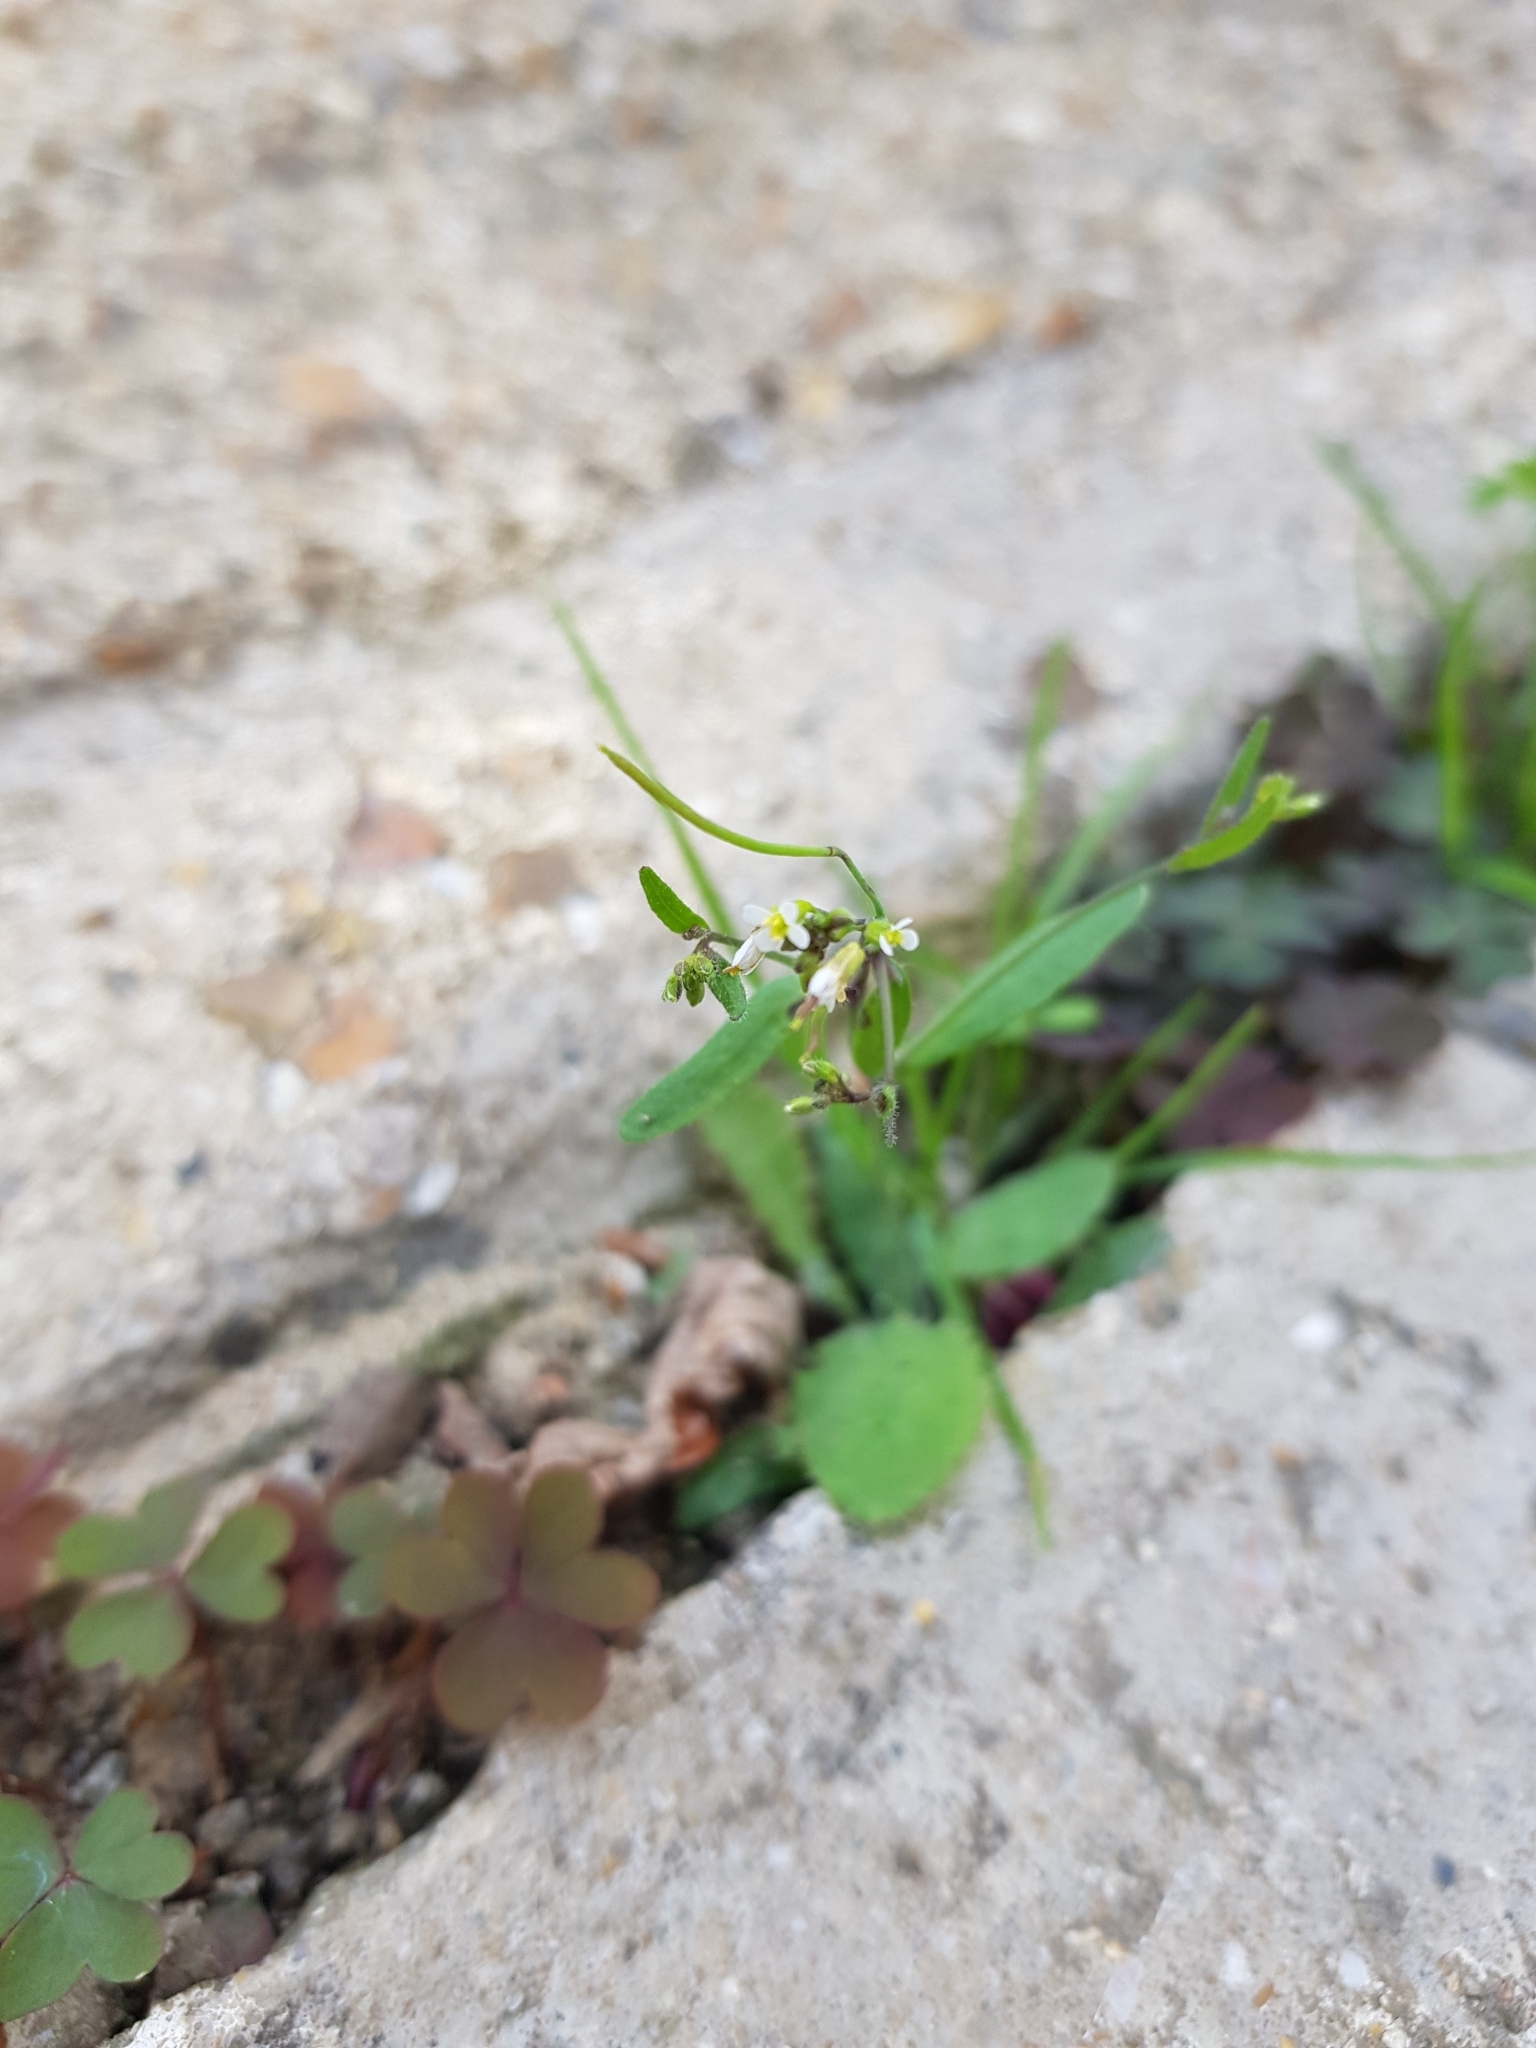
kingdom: Plantae
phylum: Tracheophyta
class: Magnoliopsida
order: Brassicales
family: Brassicaceae
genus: Arabidopsis
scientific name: Arabidopsis thaliana
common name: Thale cress
